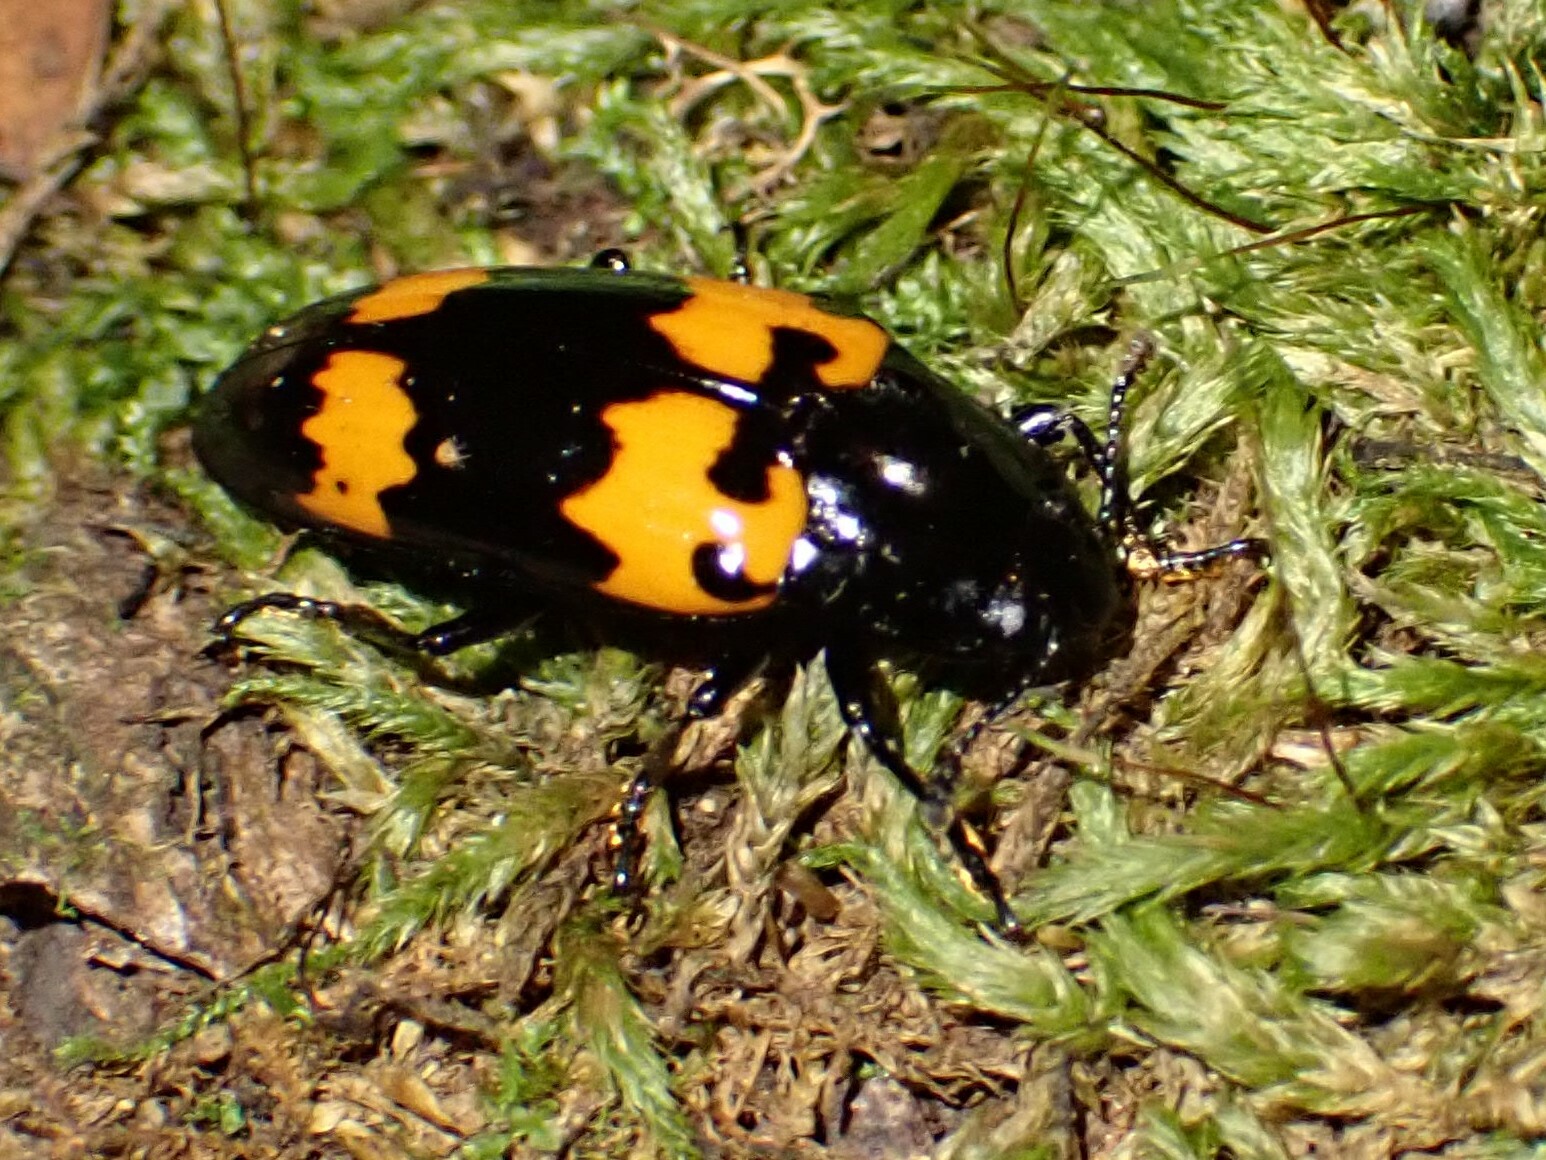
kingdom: Animalia
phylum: Arthropoda
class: Insecta
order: Coleoptera
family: Erotylidae
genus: Megalodacne
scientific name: Megalodacne heros
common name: Pleasing fungus beetle
